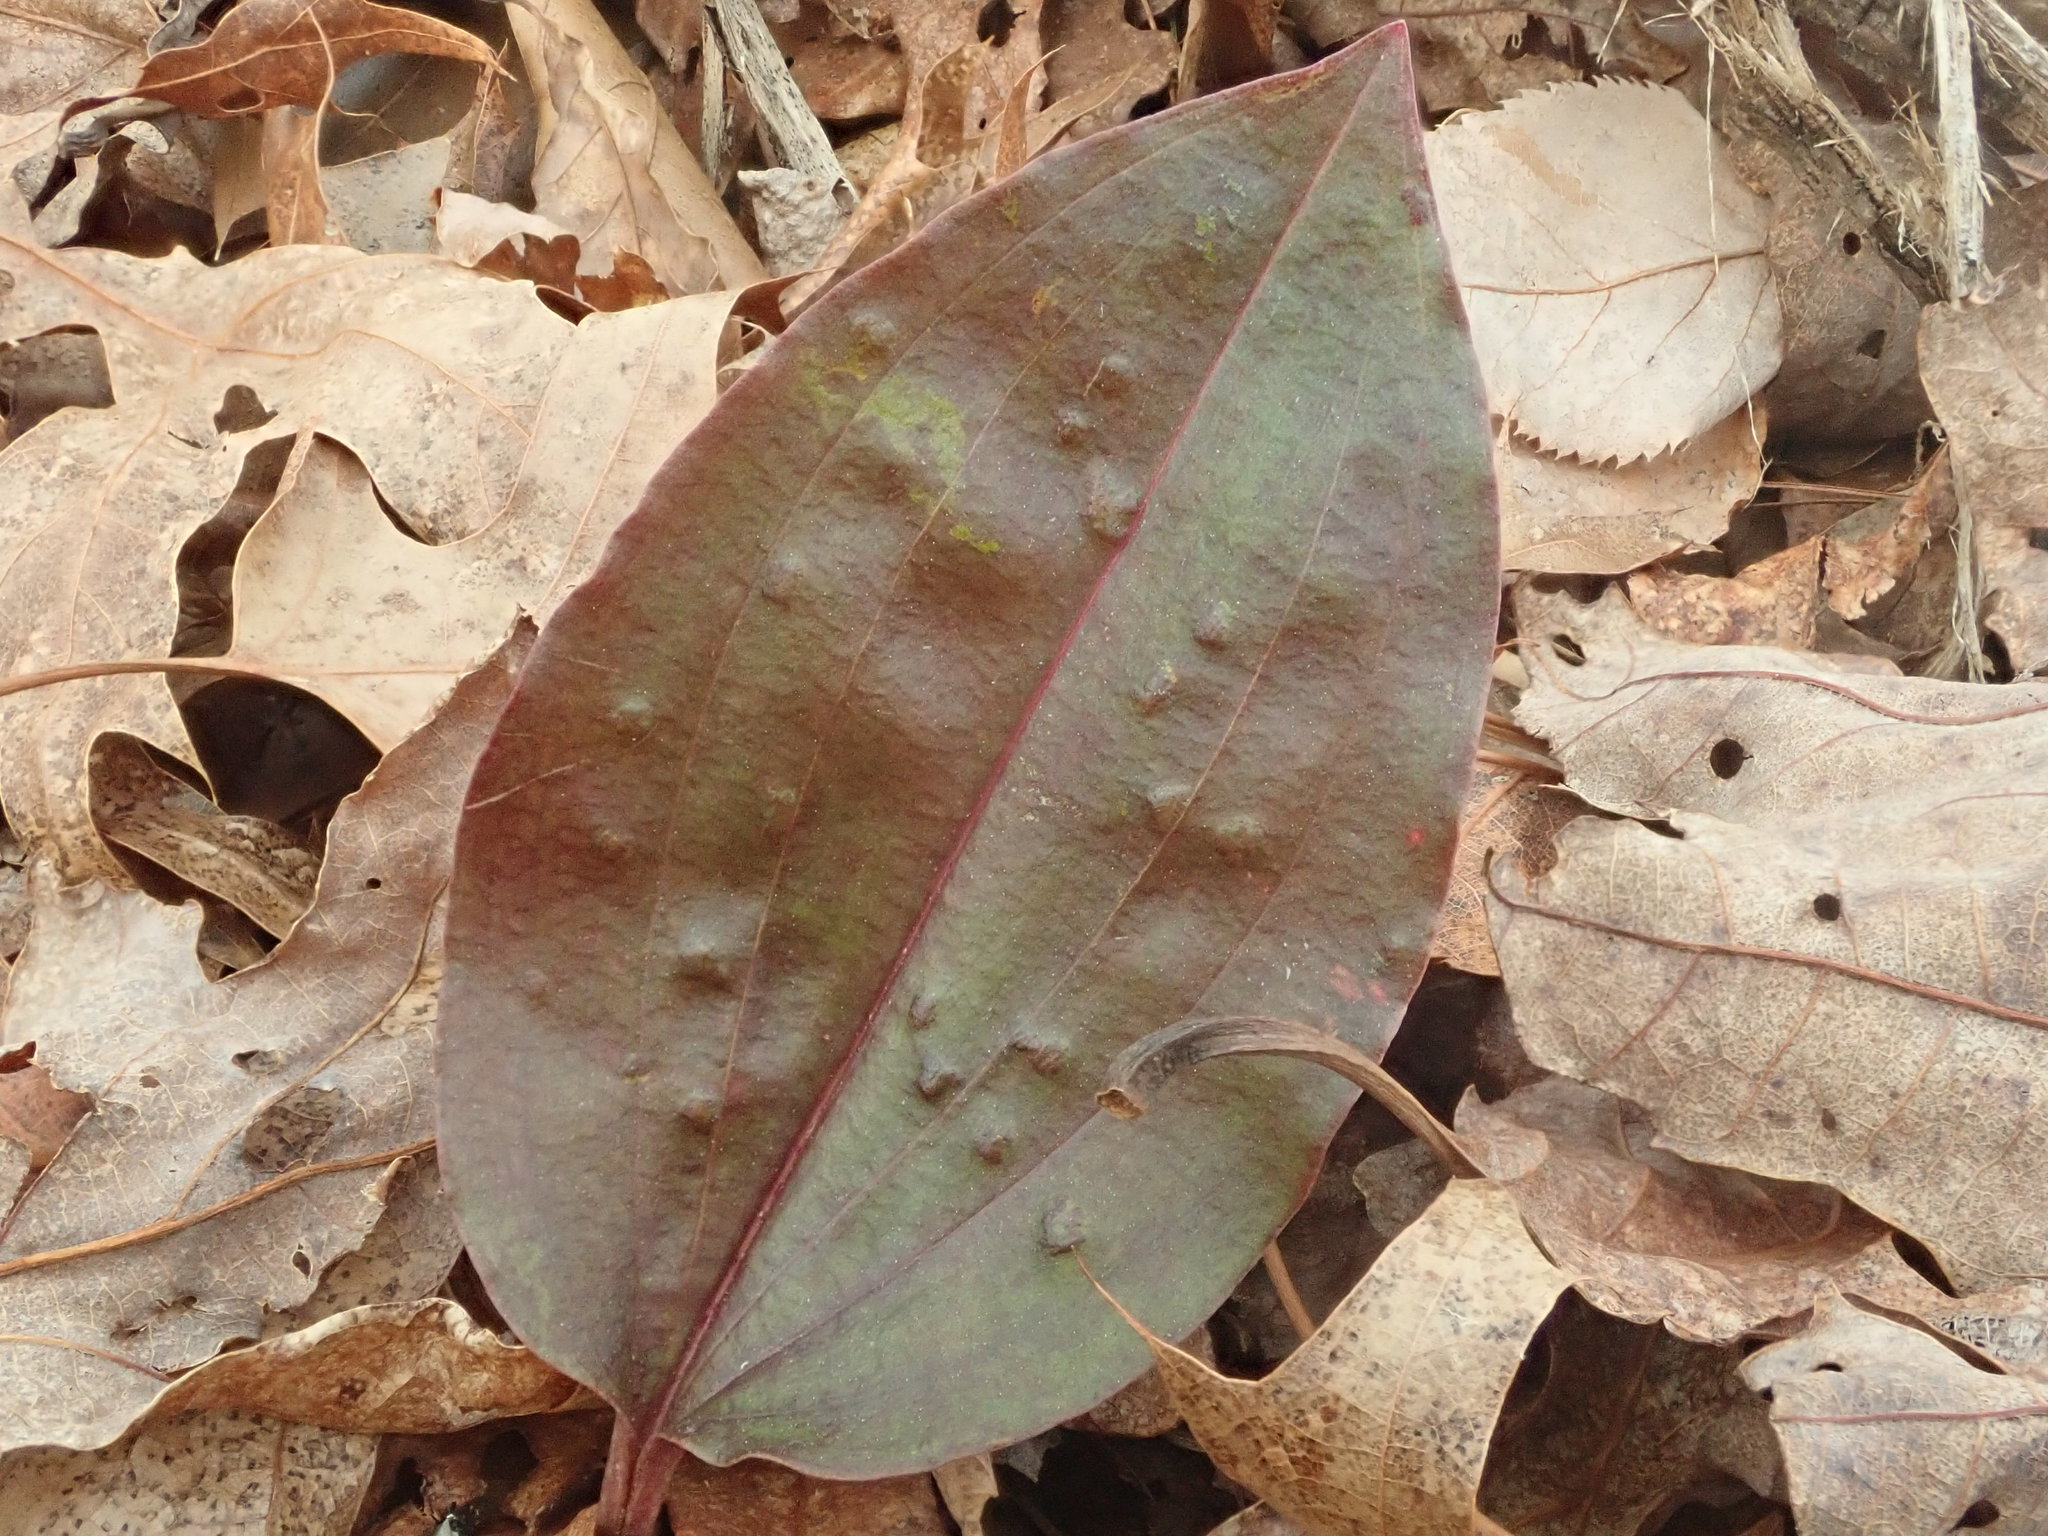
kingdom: Plantae
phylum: Tracheophyta
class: Liliopsida
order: Asparagales
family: Orchidaceae
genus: Tipularia
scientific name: Tipularia discolor
